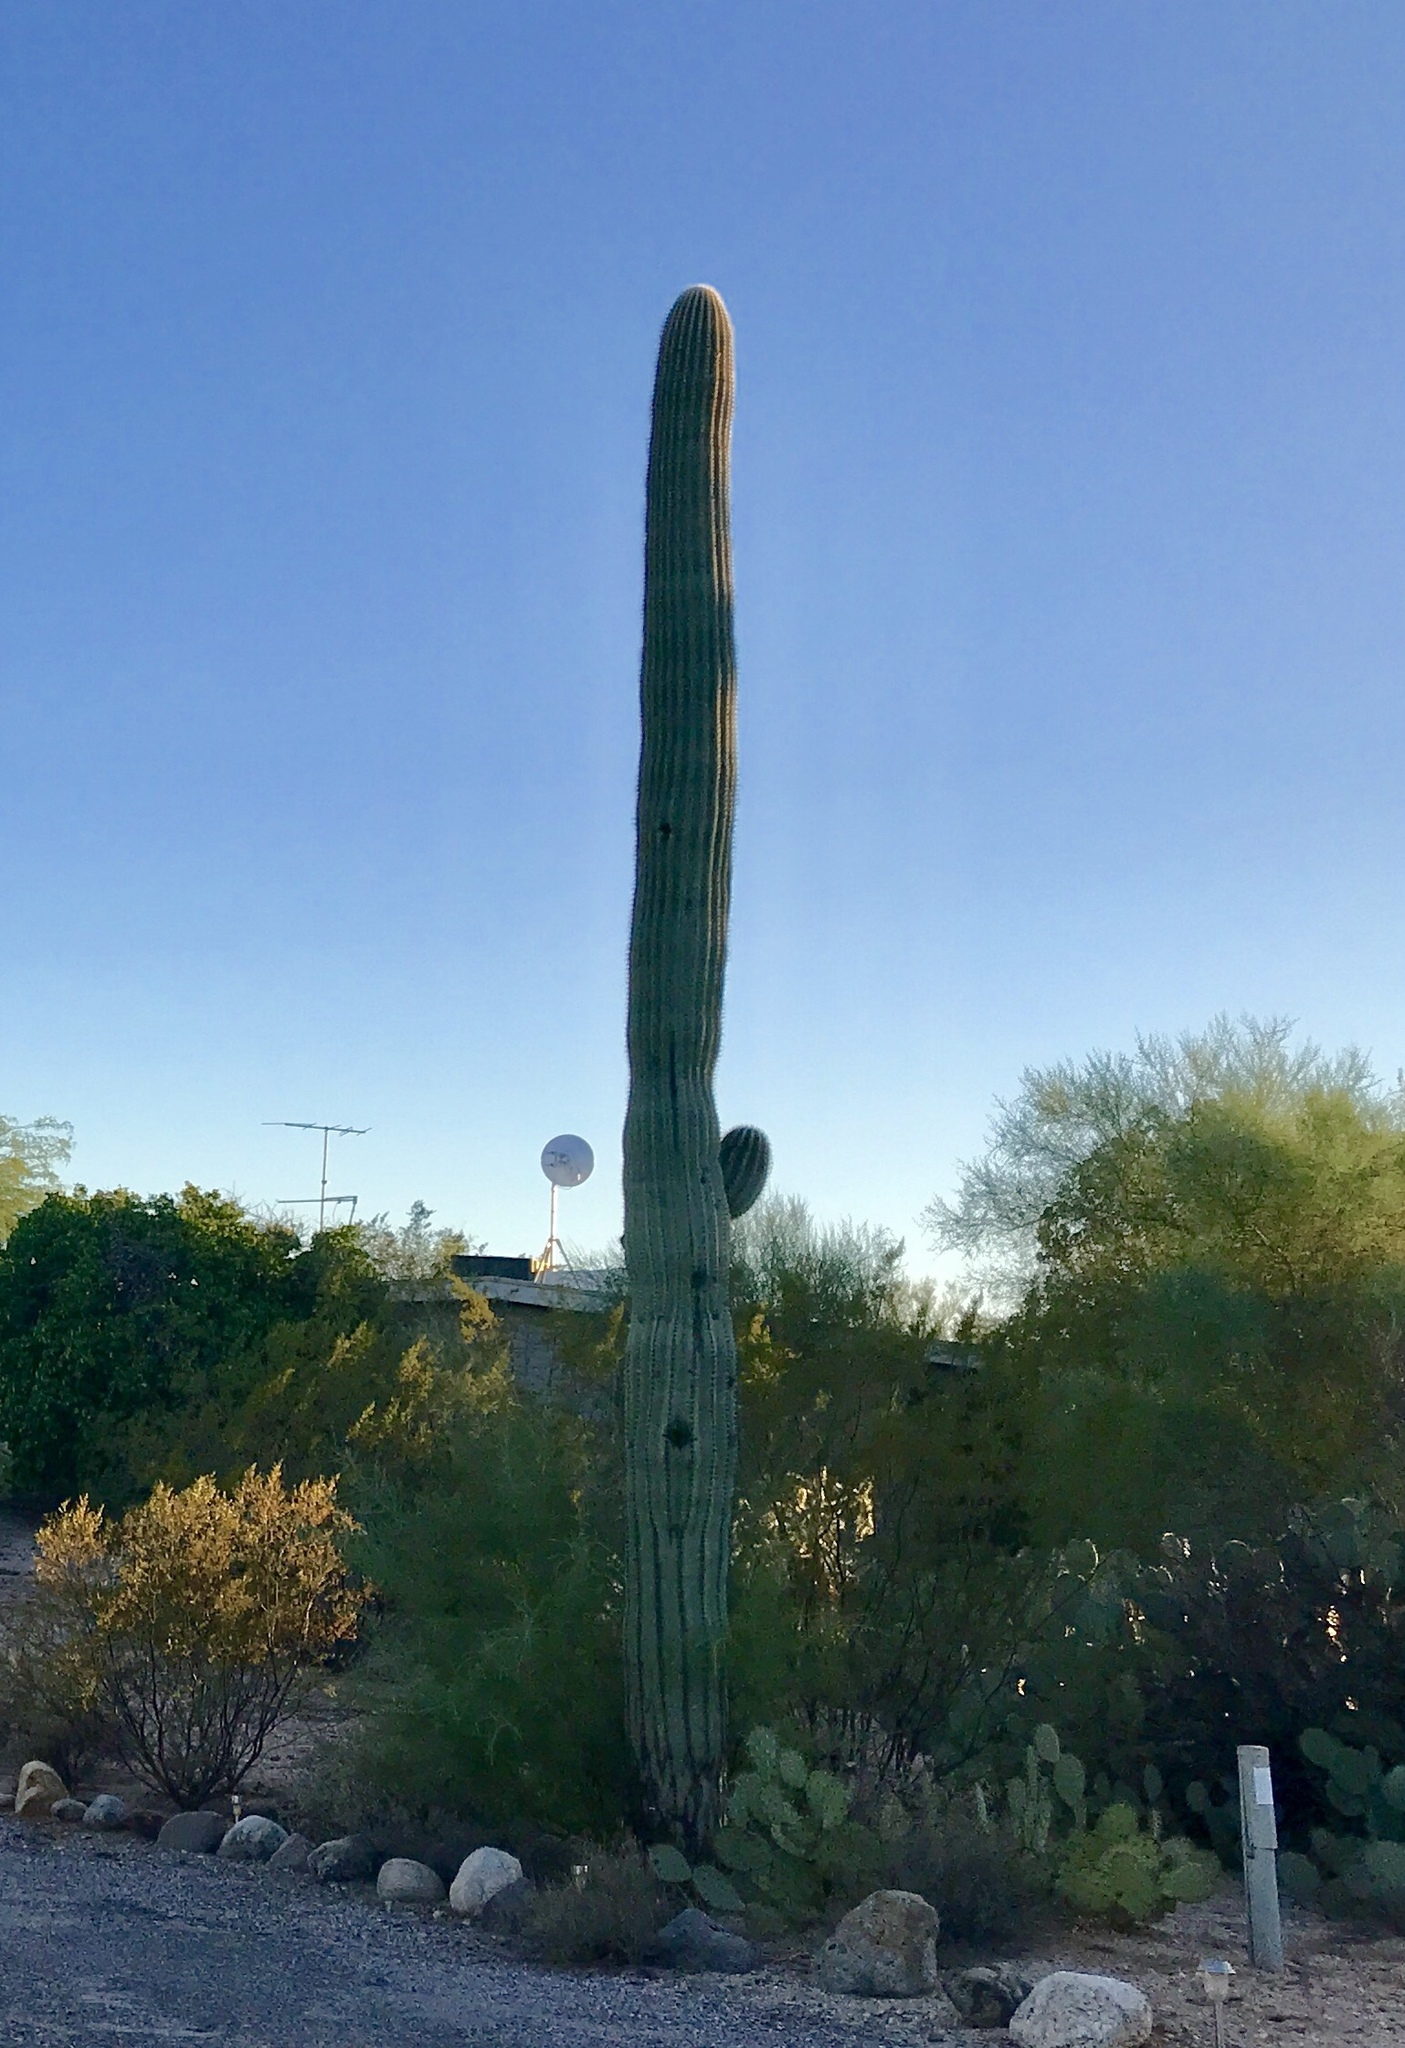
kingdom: Plantae
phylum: Tracheophyta
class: Magnoliopsida
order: Caryophyllales
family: Cactaceae
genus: Carnegiea
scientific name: Carnegiea gigantea
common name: Saguaro
